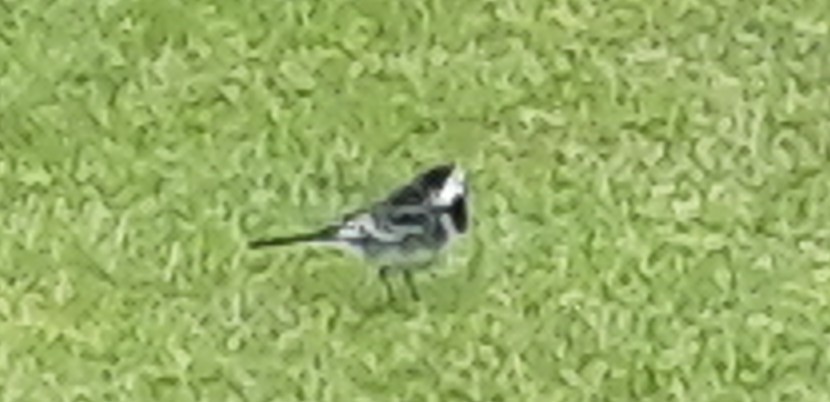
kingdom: Animalia
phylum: Chordata
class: Aves
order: Passeriformes
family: Motacillidae
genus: Motacilla
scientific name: Motacilla alba
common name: White wagtail
